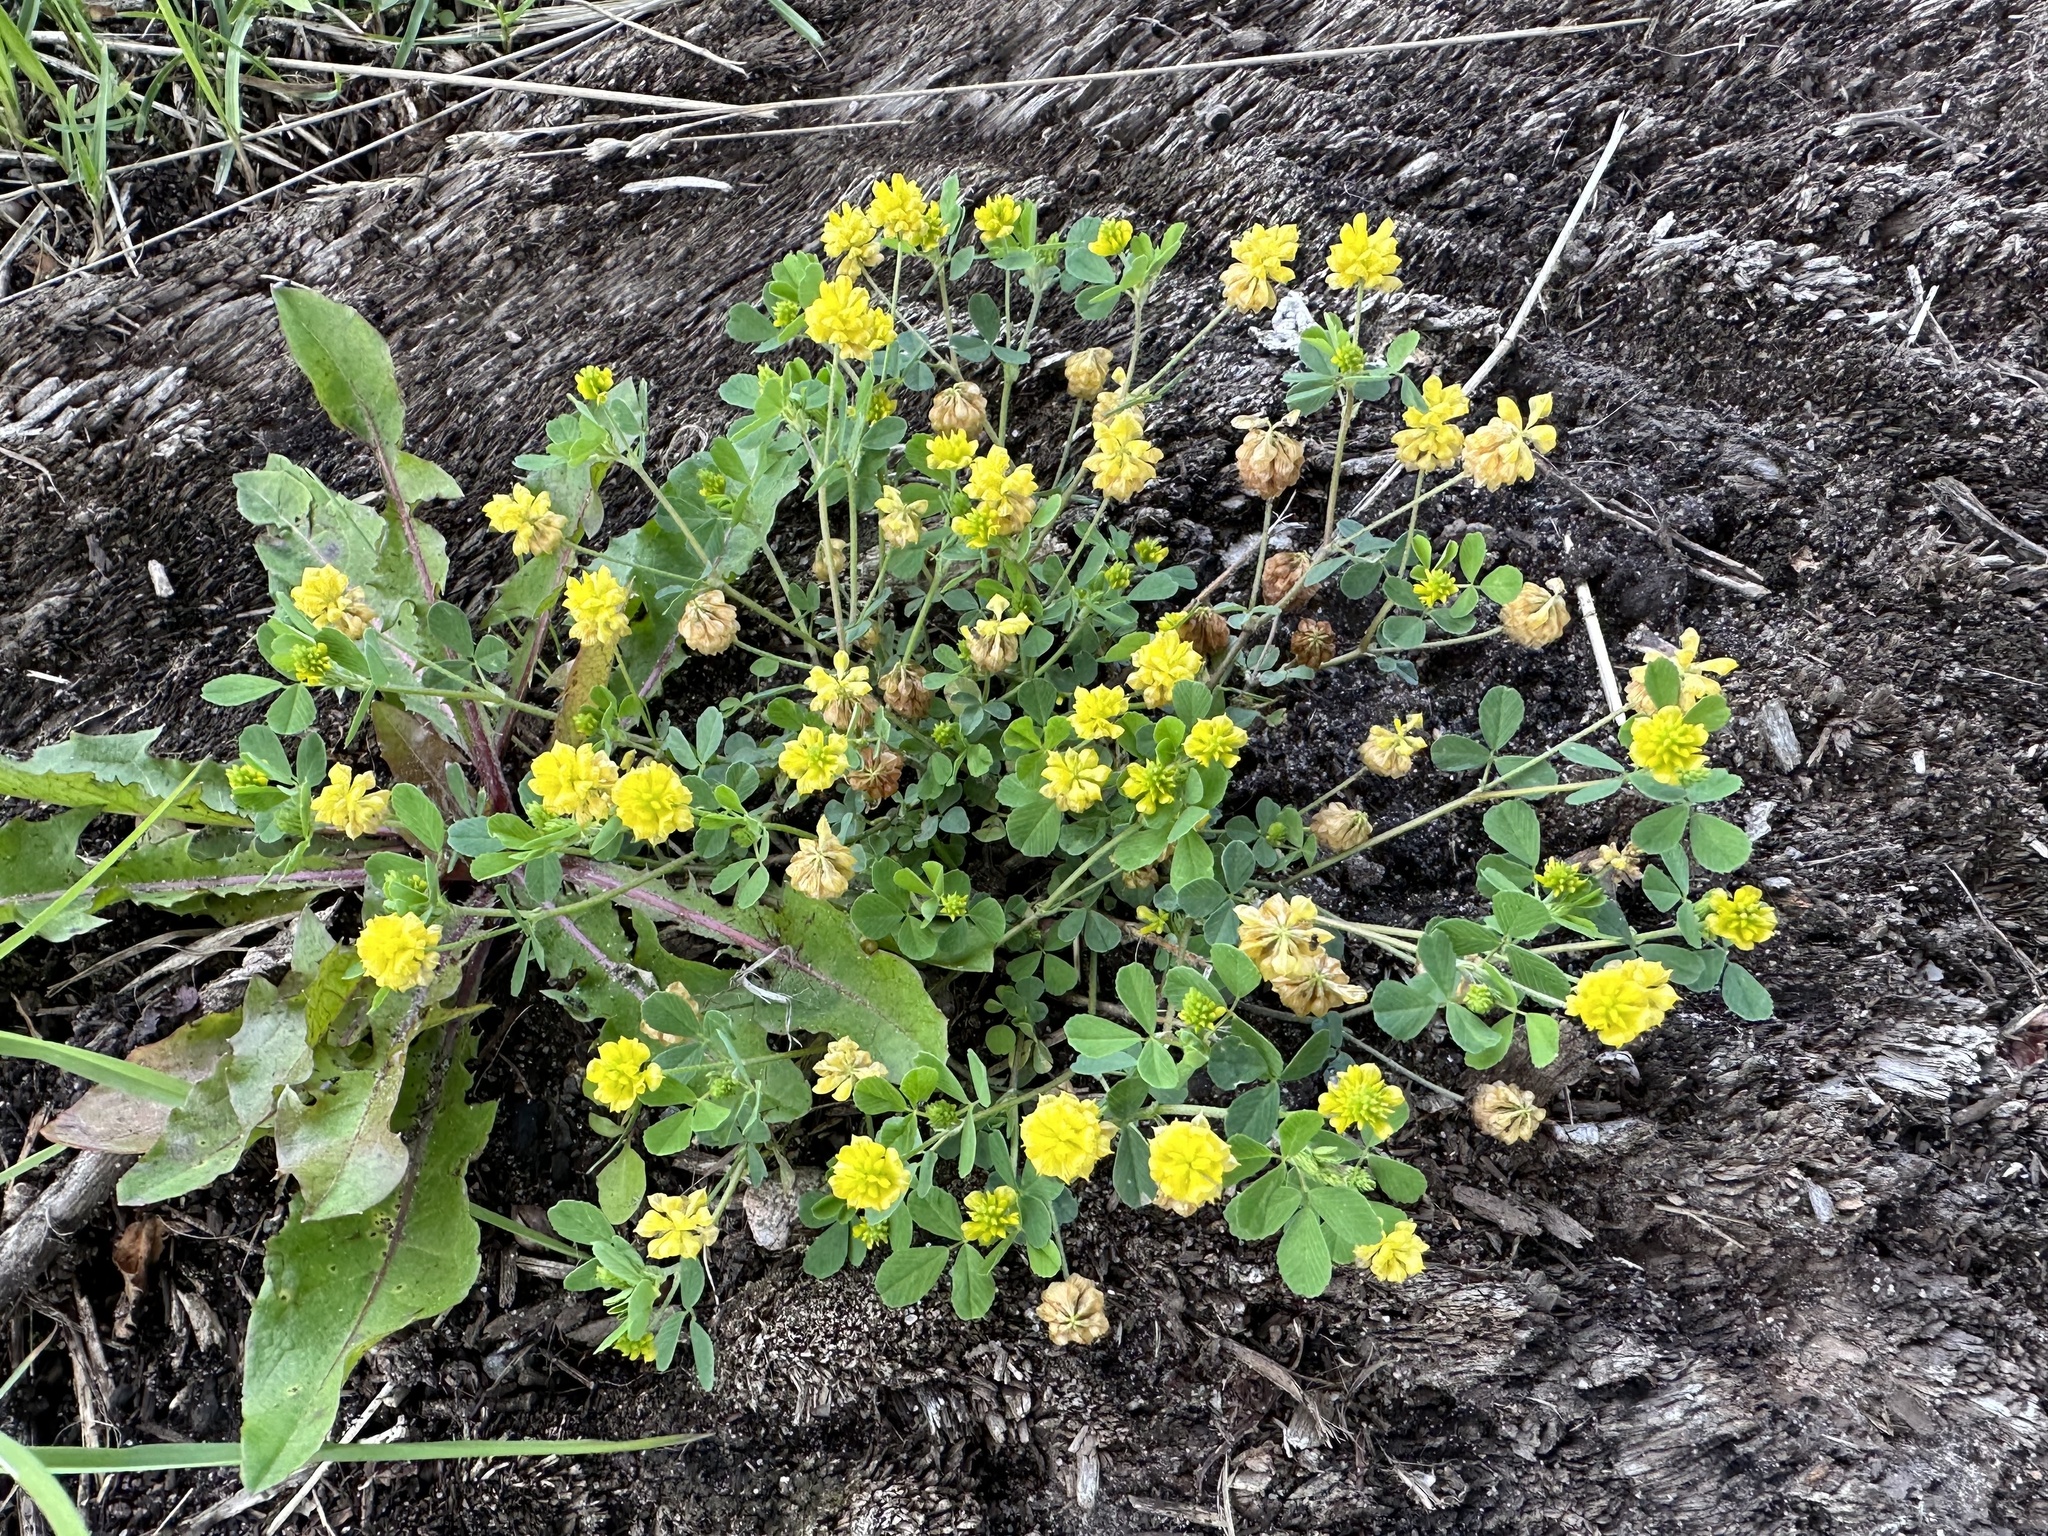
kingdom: Plantae
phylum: Tracheophyta
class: Magnoliopsida
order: Fabales
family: Fabaceae
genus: Trifolium
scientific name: Trifolium campestre
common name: Field clover
